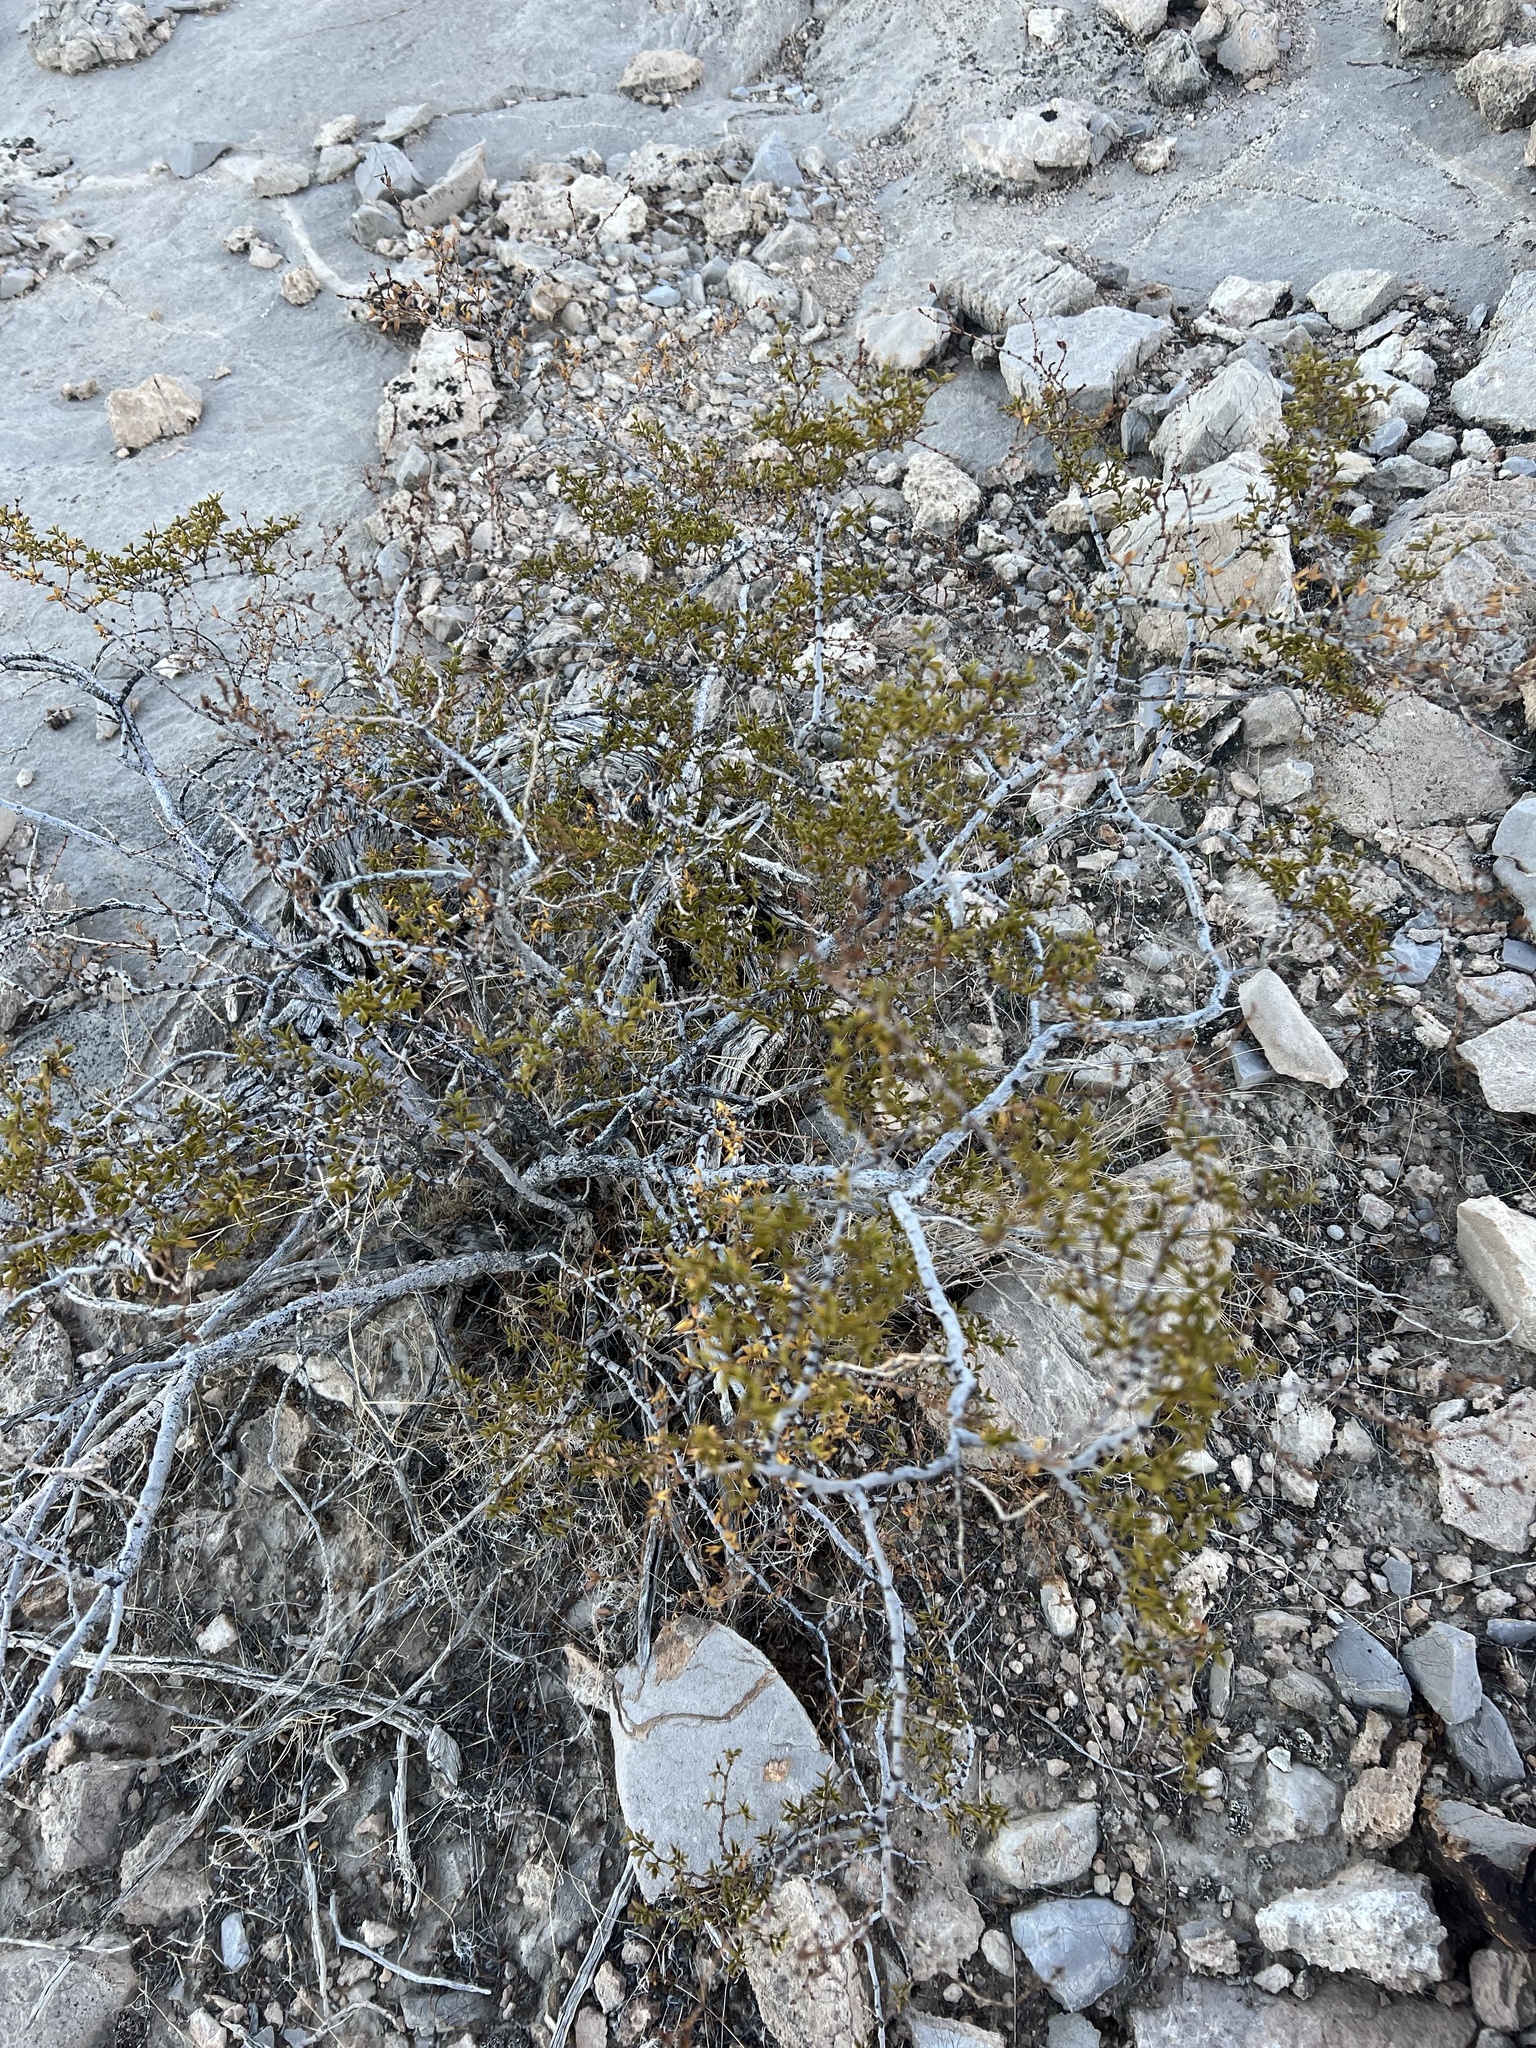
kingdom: Plantae
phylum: Tracheophyta
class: Magnoliopsida
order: Zygophyllales
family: Zygophyllaceae
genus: Larrea
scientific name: Larrea tridentata
